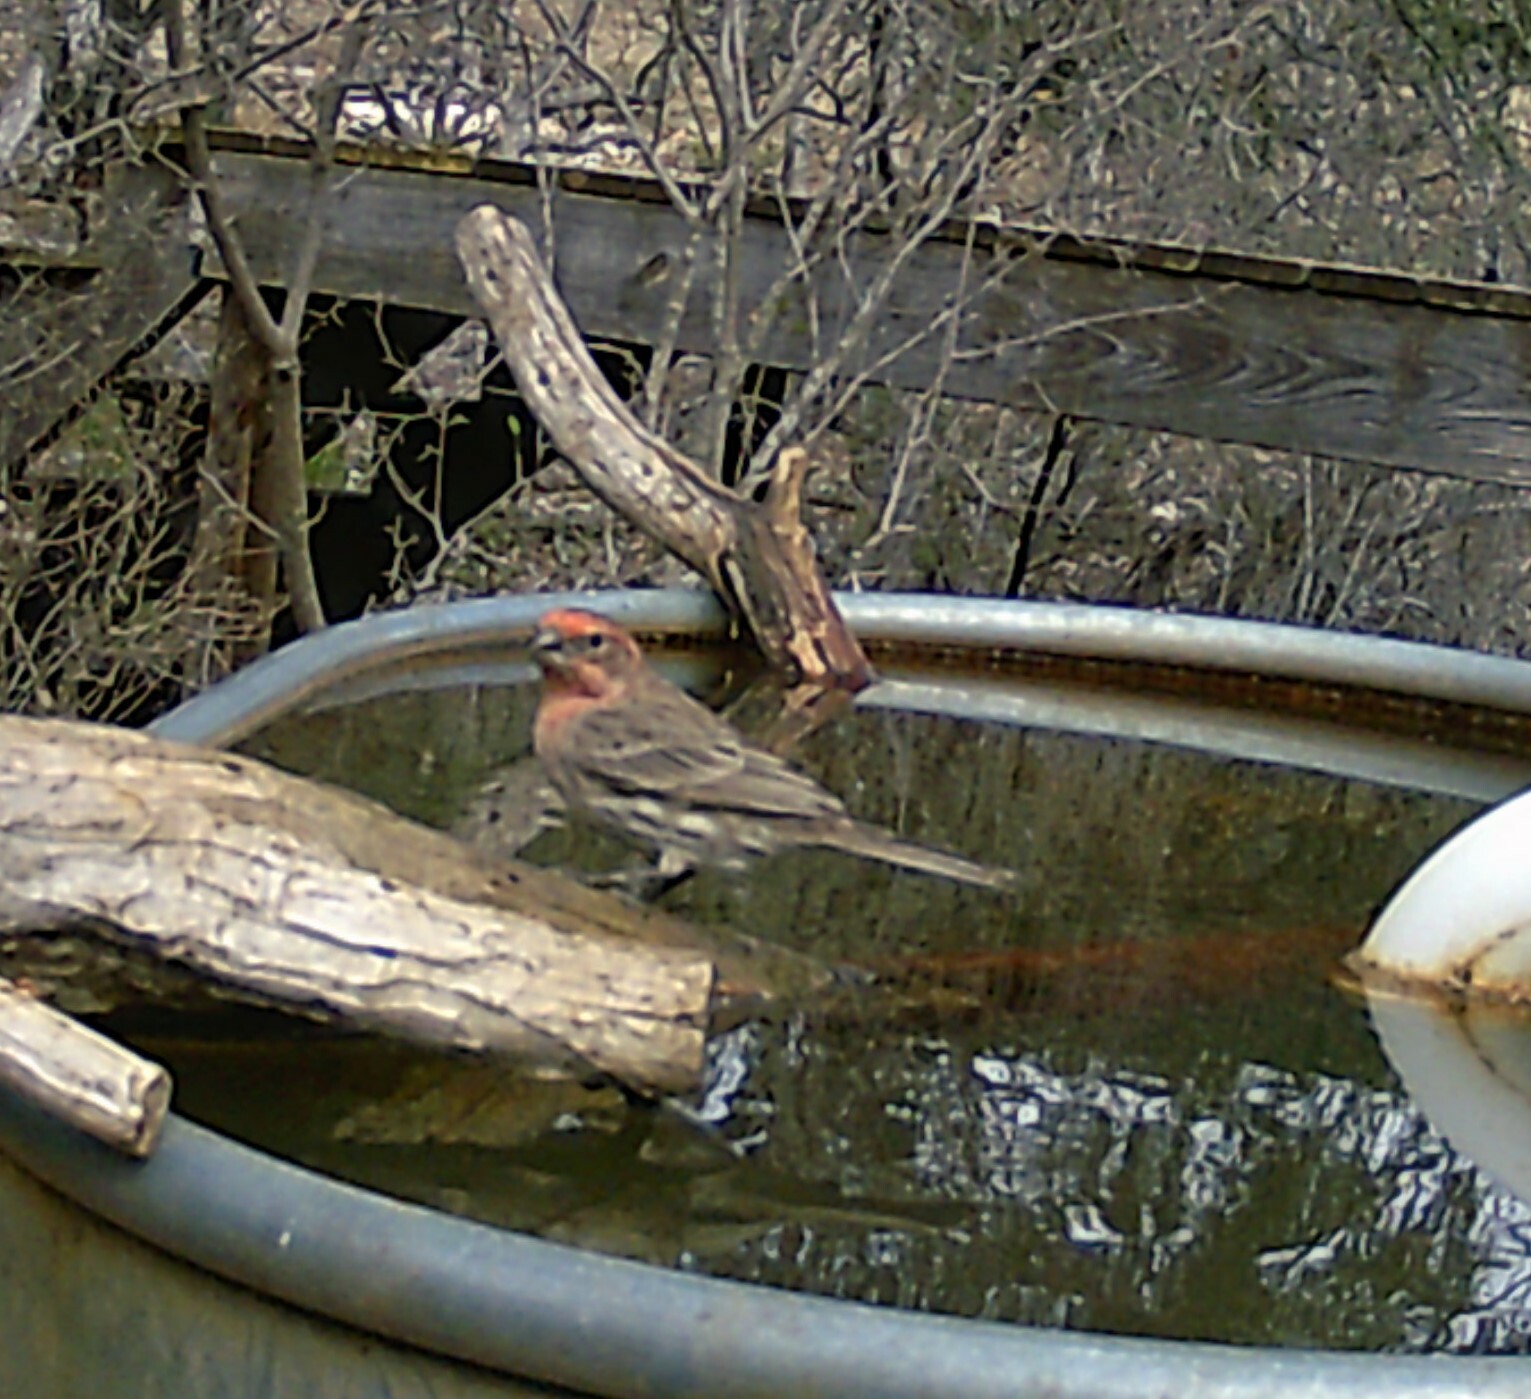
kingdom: Animalia
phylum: Chordata
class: Aves
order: Passeriformes
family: Fringillidae
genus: Haemorhous
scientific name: Haemorhous mexicanus
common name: House finch
